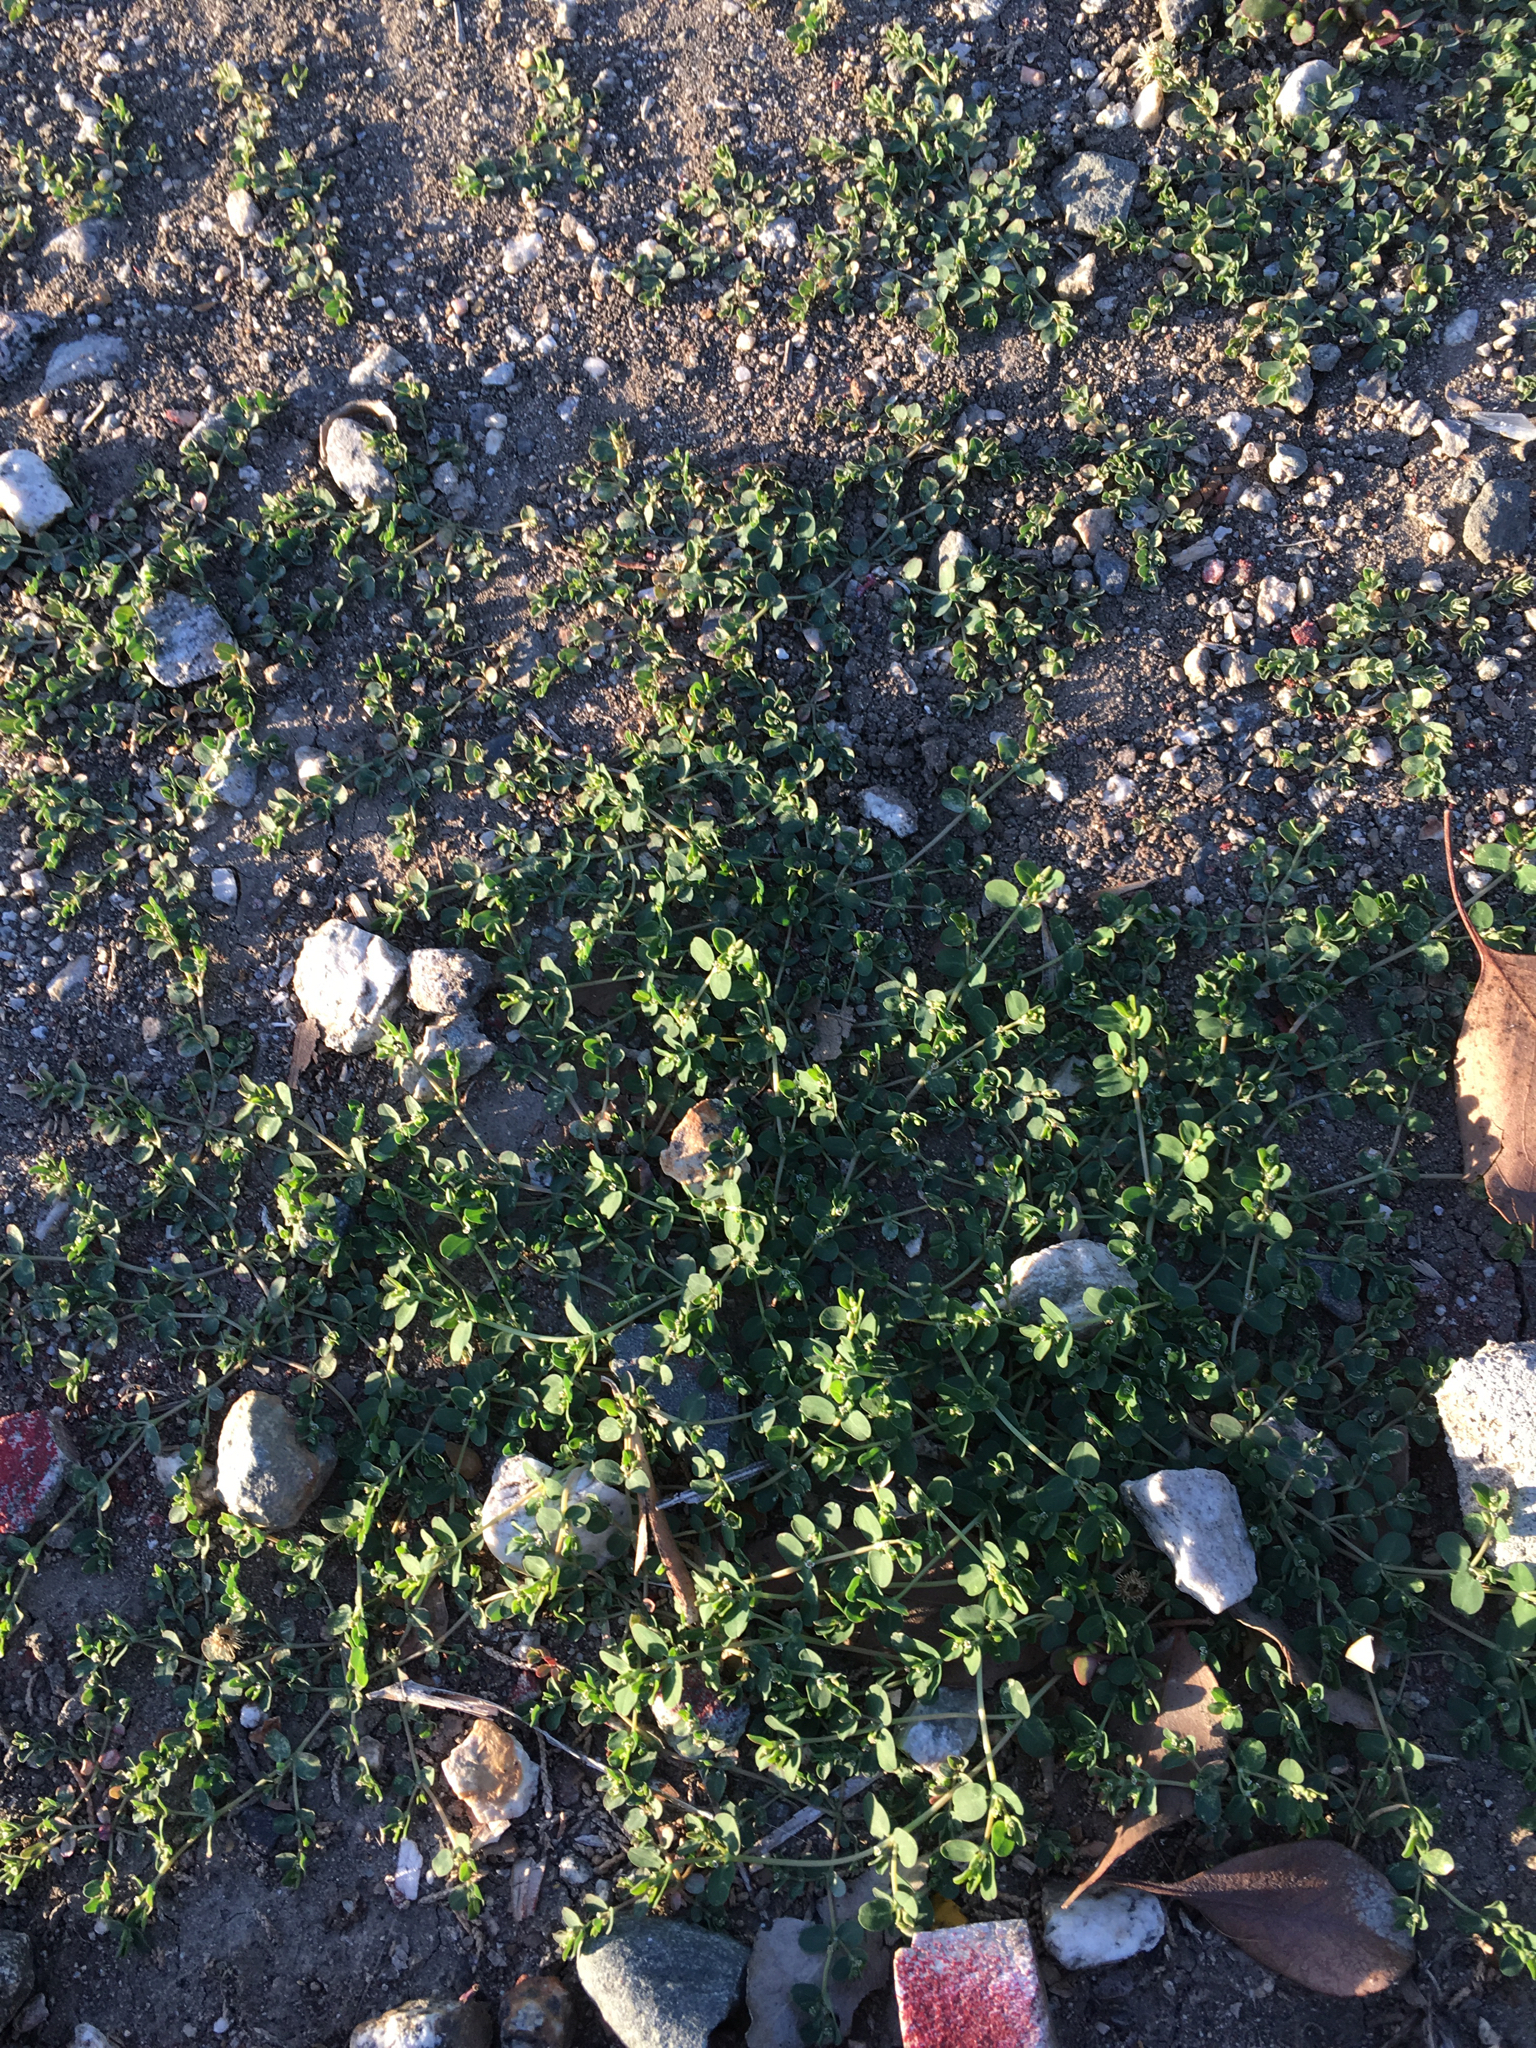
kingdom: Plantae
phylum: Tracheophyta
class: Magnoliopsida
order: Malpighiales
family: Euphorbiaceae
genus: Euphorbia
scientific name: Euphorbia serpens
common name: Matted sandmat
